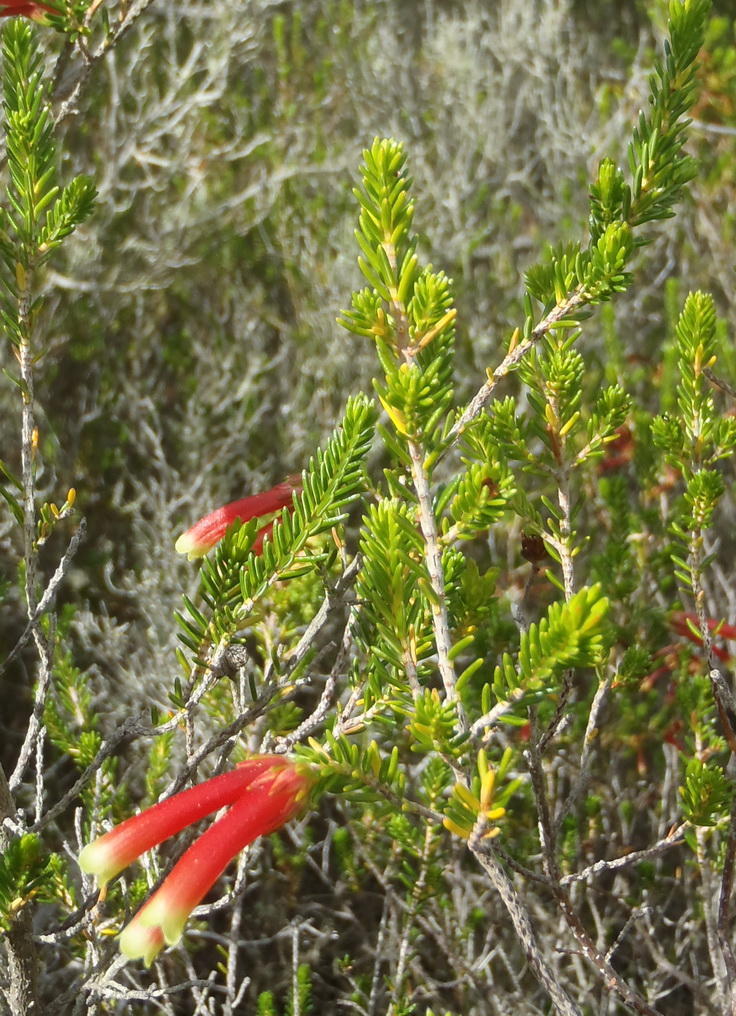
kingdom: Plantae
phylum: Tracheophyta
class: Magnoliopsida
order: Ericales
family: Ericaceae
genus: Erica
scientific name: Erica discolor
